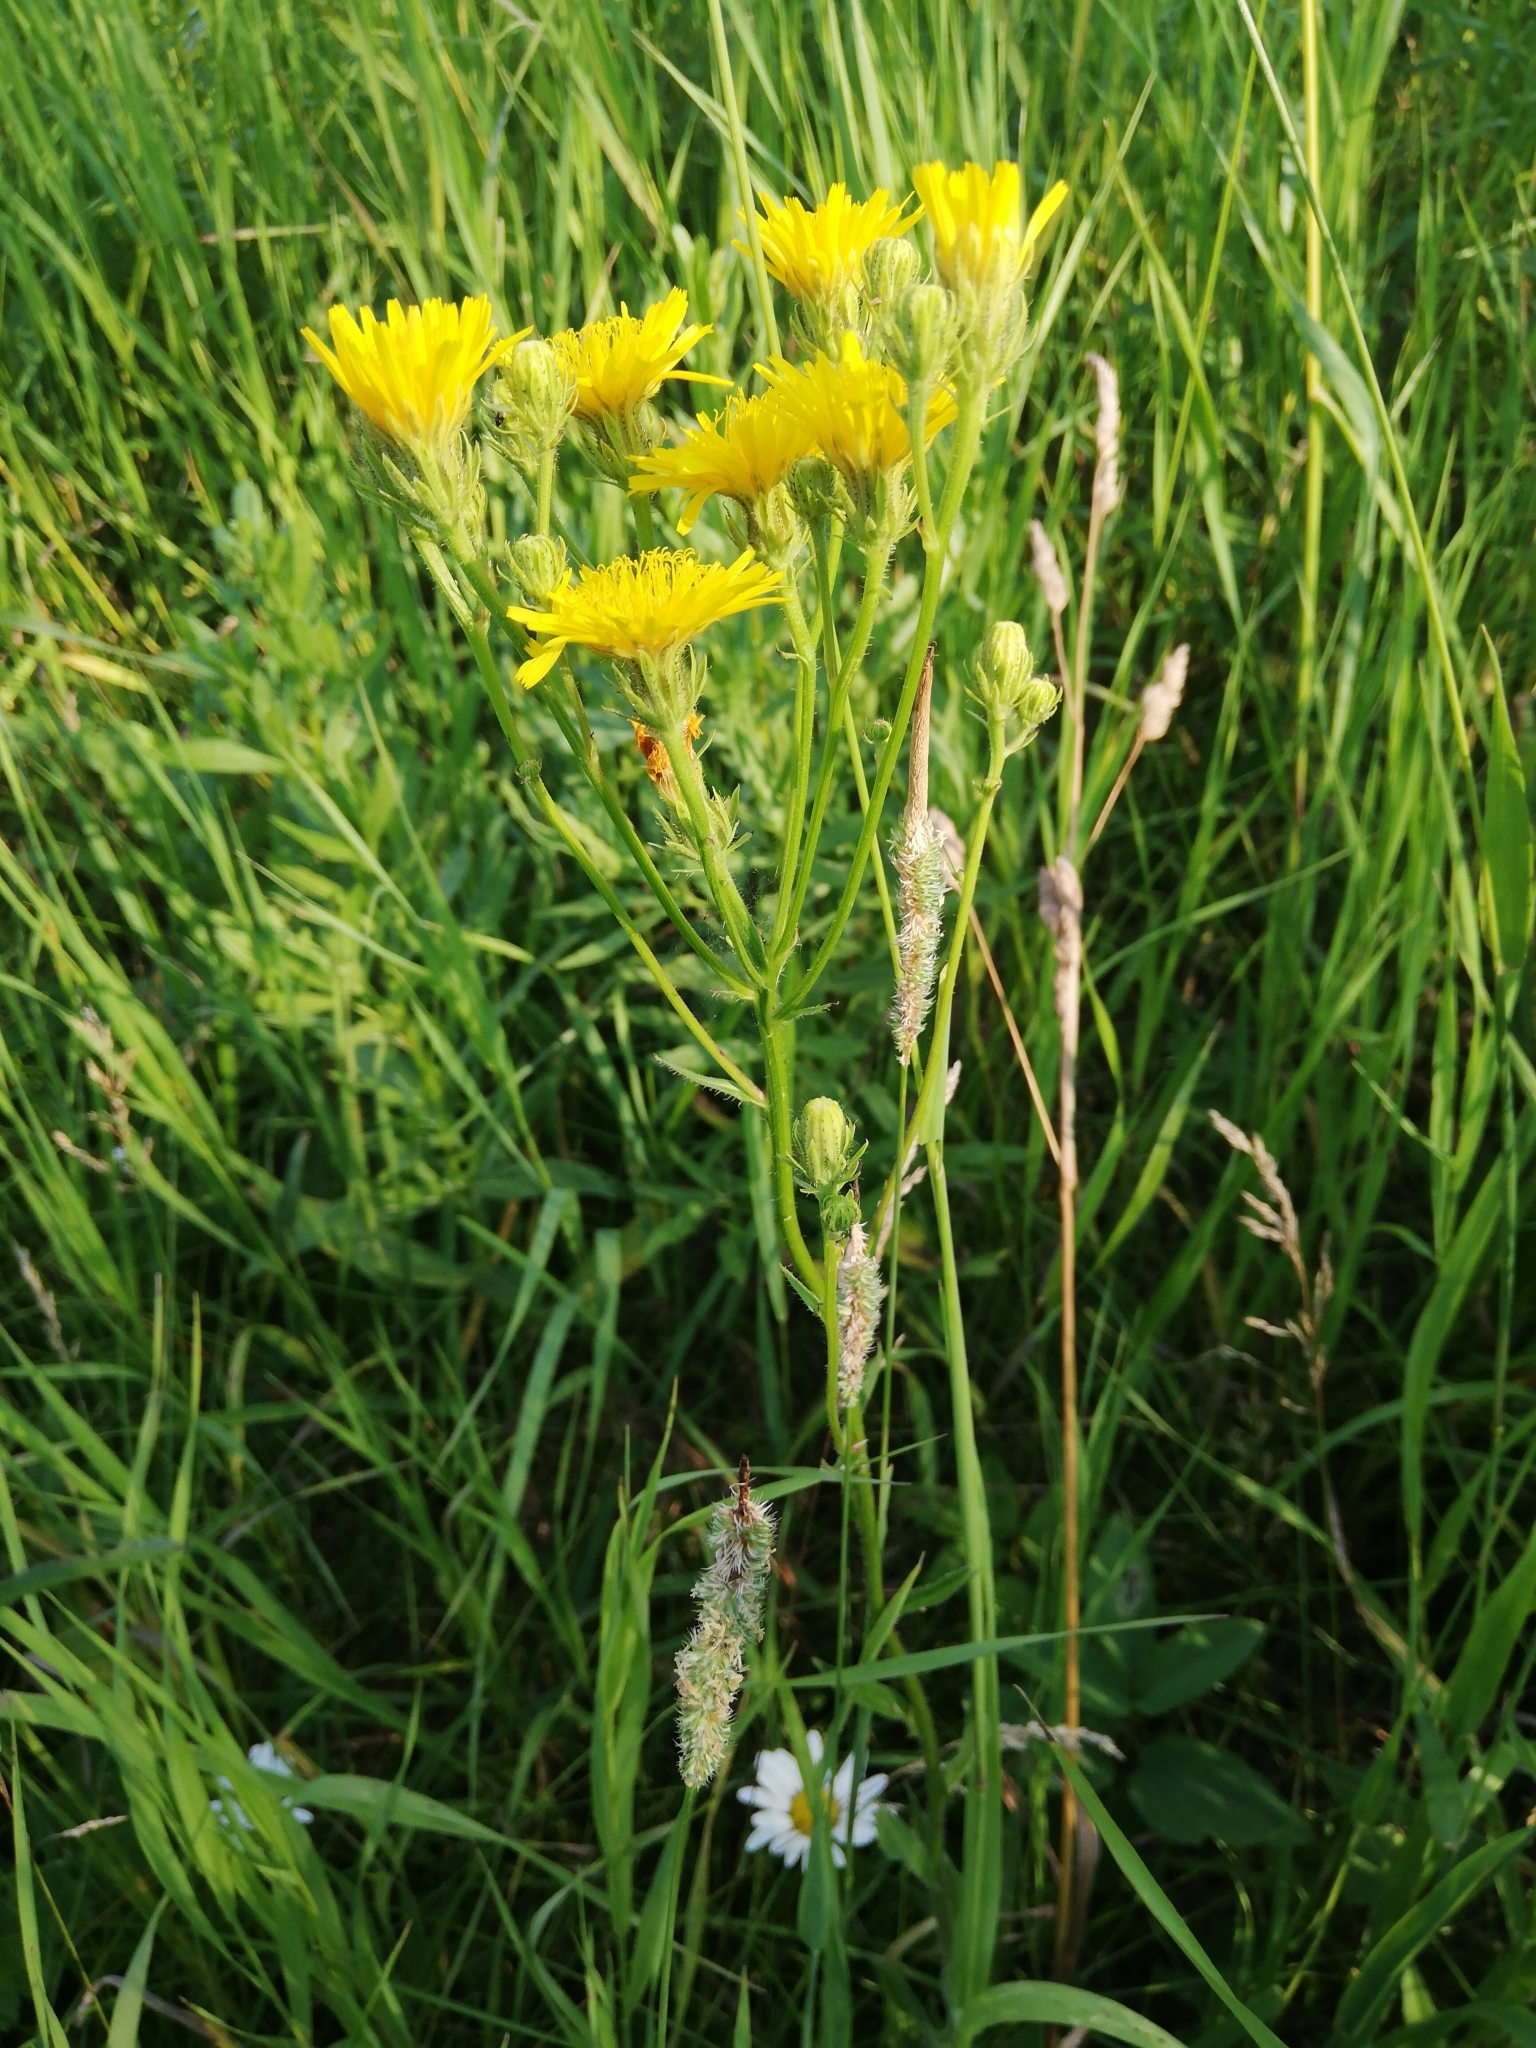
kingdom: Plantae
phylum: Tracheophyta
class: Magnoliopsida
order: Asterales
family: Asteraceae
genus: Picris
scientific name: Picris hieracioides
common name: Hawkweed oxtongue
